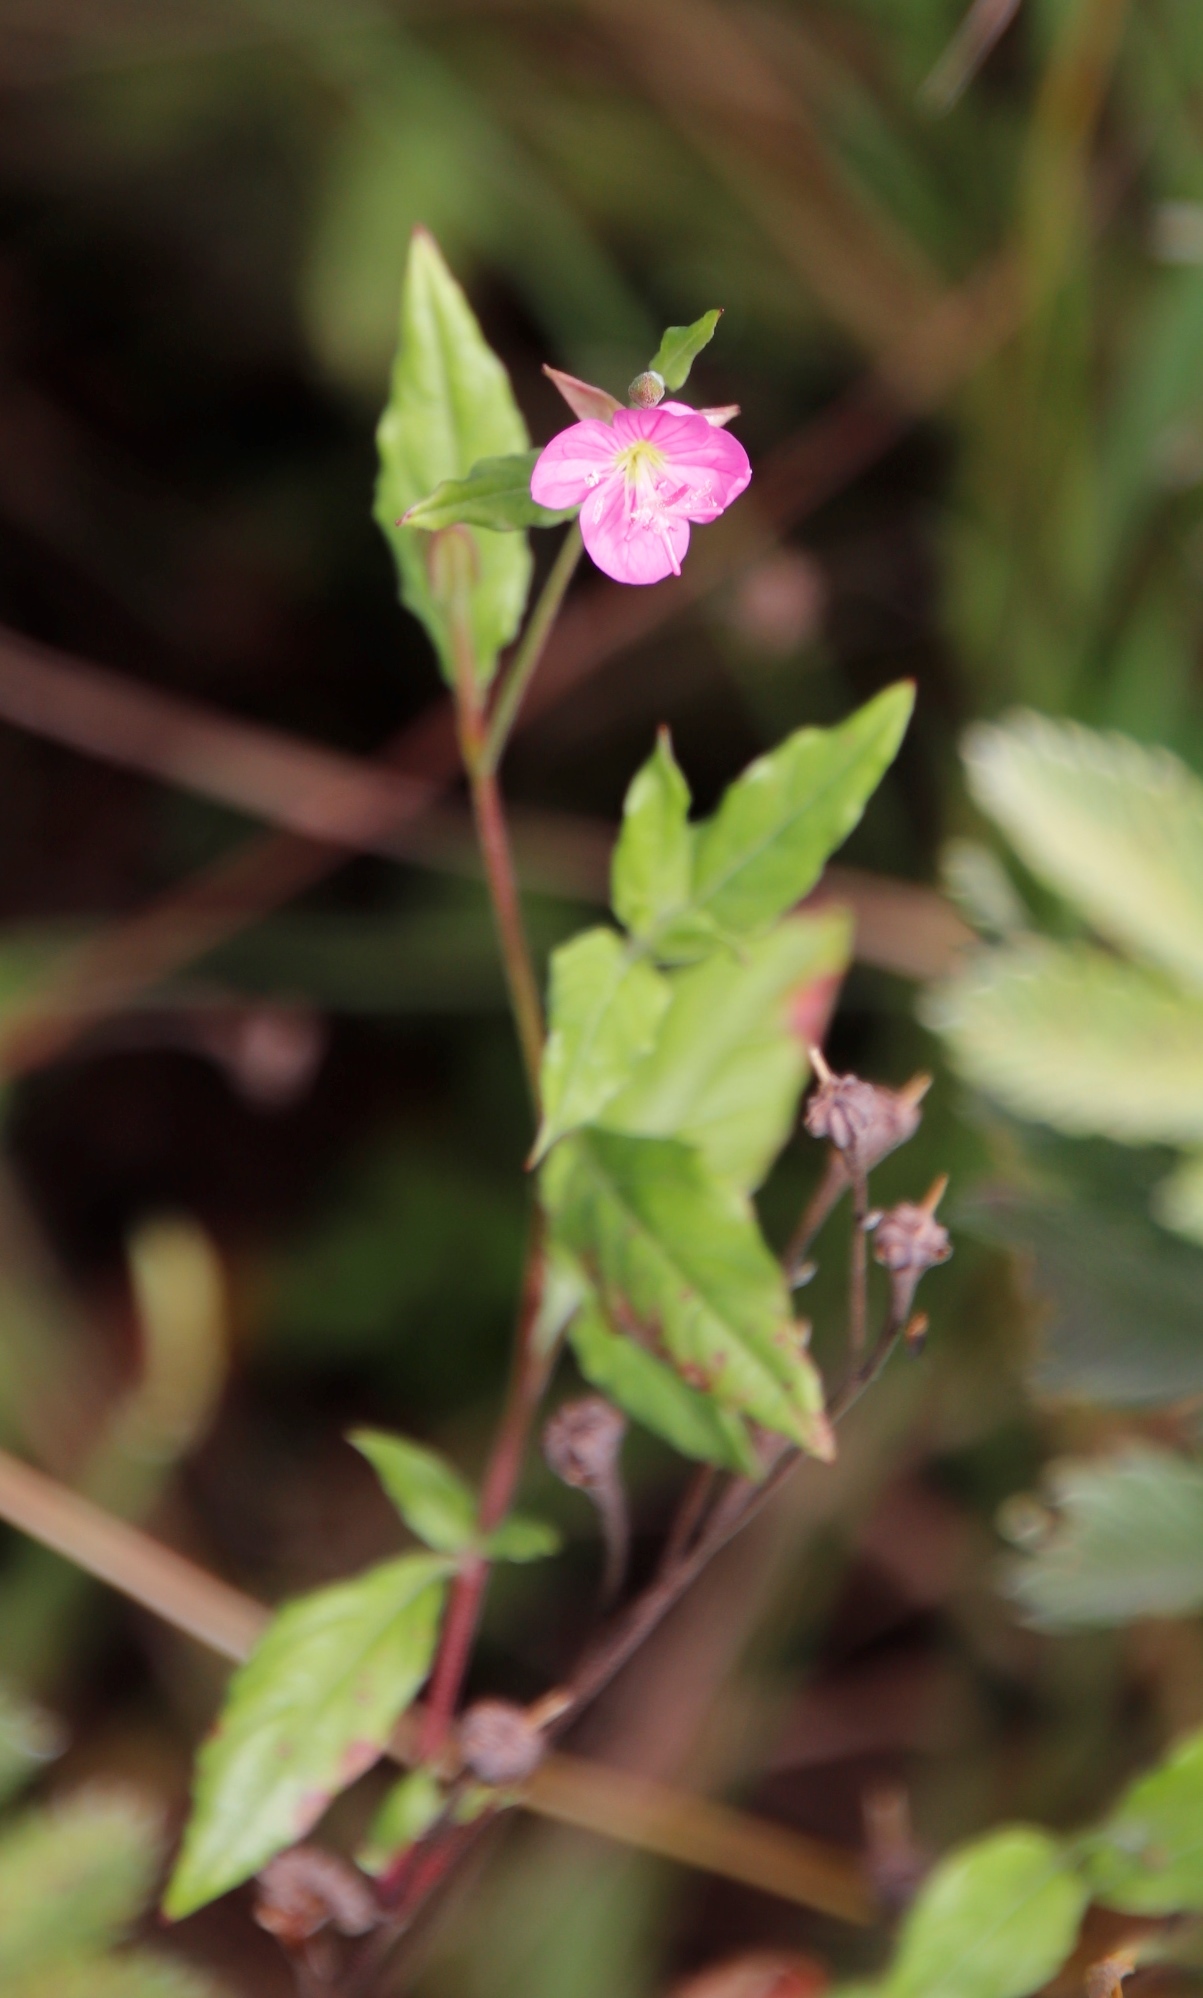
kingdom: Plantae
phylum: Tracheophyta
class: Magnoliopsida
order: Myrtales
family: Onagraceae
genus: Oenothera
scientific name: Oenothera rosea
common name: Rosy evening-primrose
